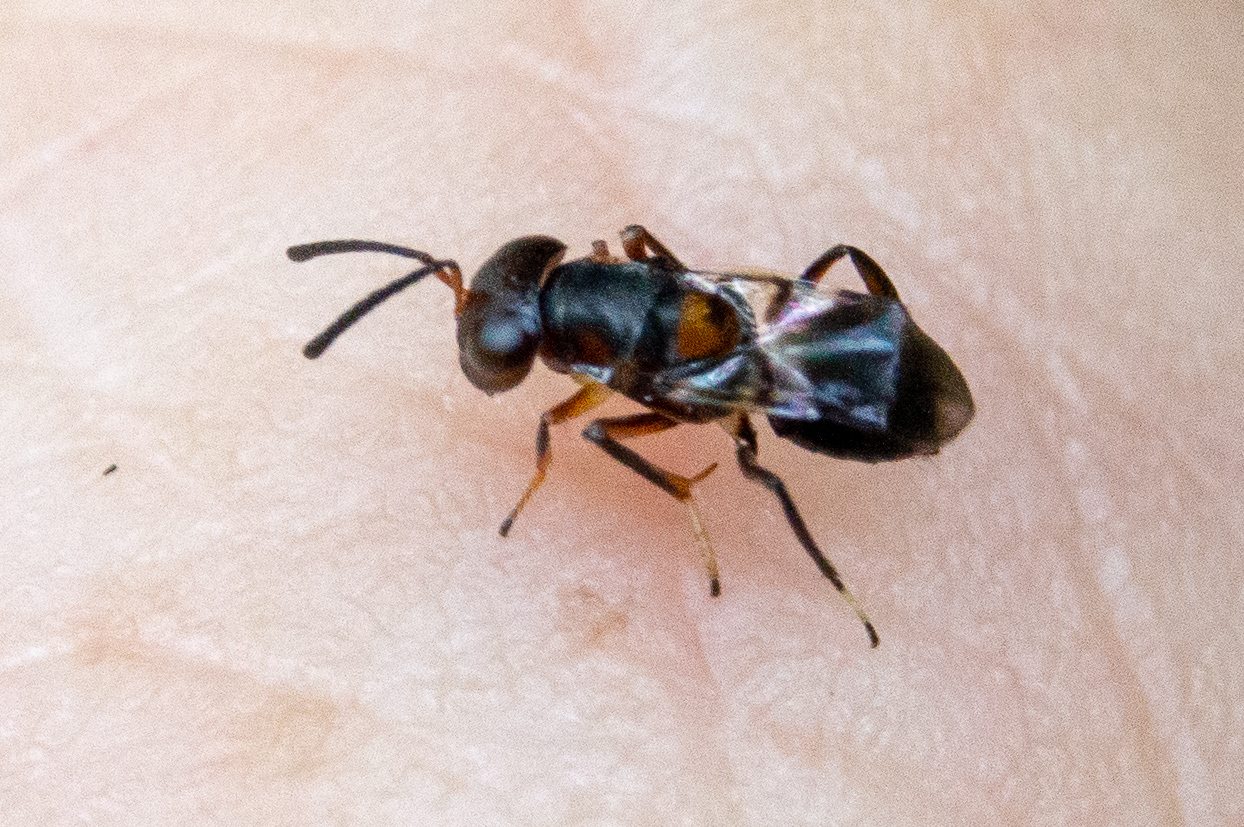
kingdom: Animalia
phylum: Arthropoda
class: Insecta
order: Hymenoptera
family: Encyrtidae
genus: Encyrtus
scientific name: Encyrtus aurantii
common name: Parasitoid wasp
